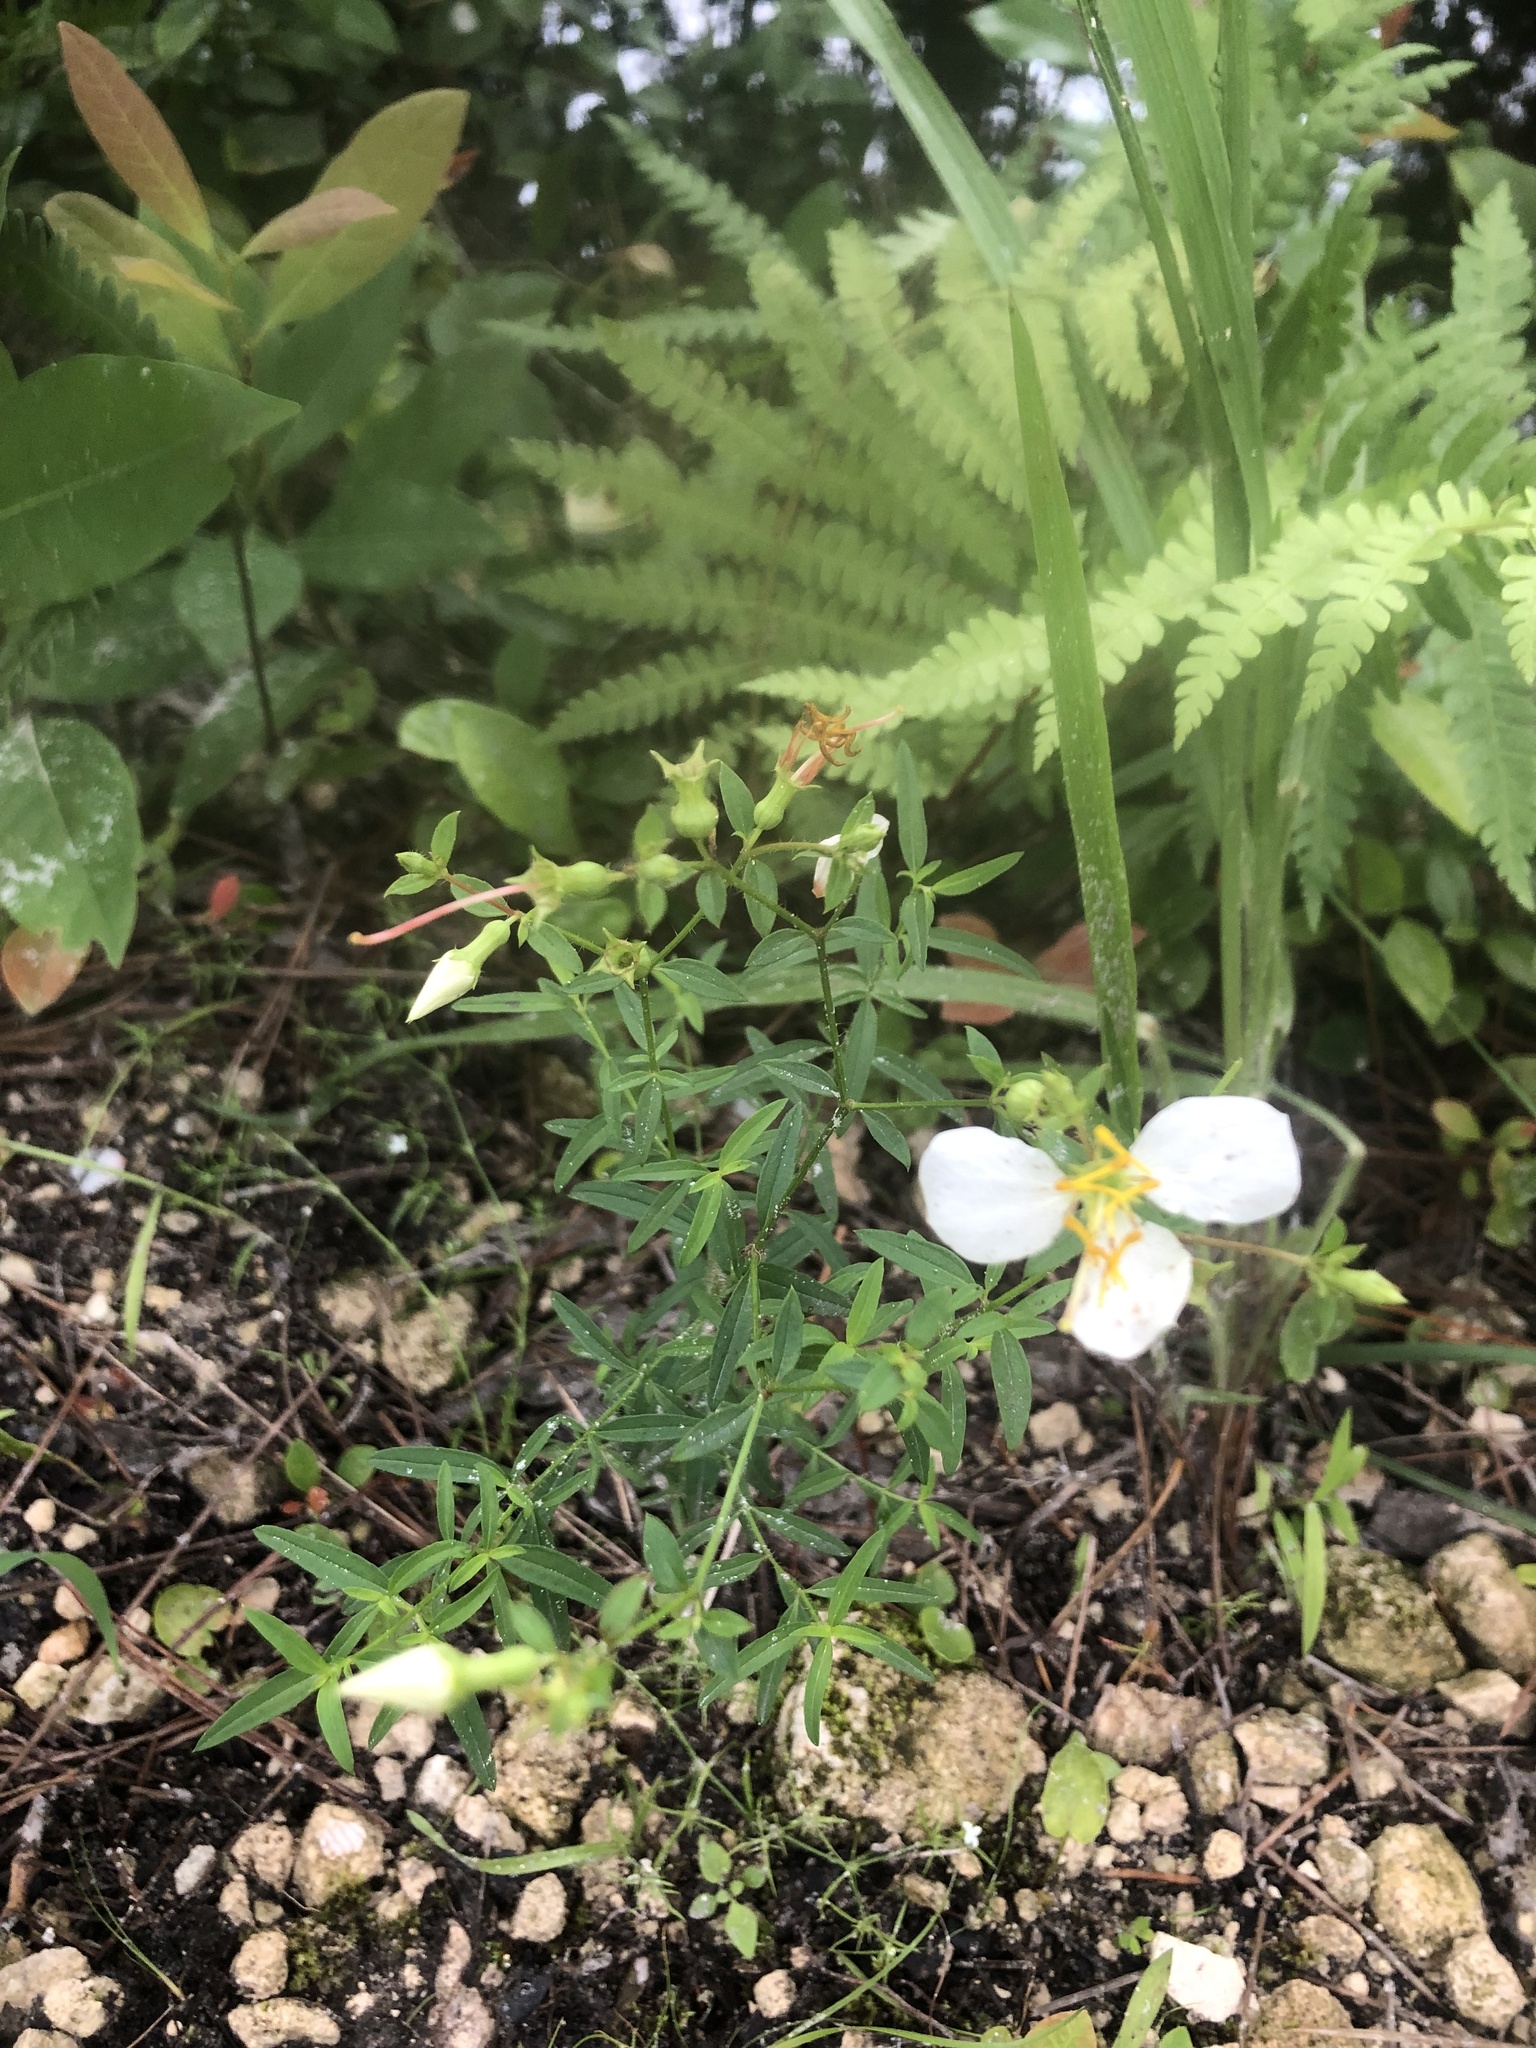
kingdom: Plantae
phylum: Tracheophyta
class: Magnoliopsida
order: Myrtales
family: Melastomataceae
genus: Rhexia
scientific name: Rhexia mariana
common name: Dull meadow-pitcher
